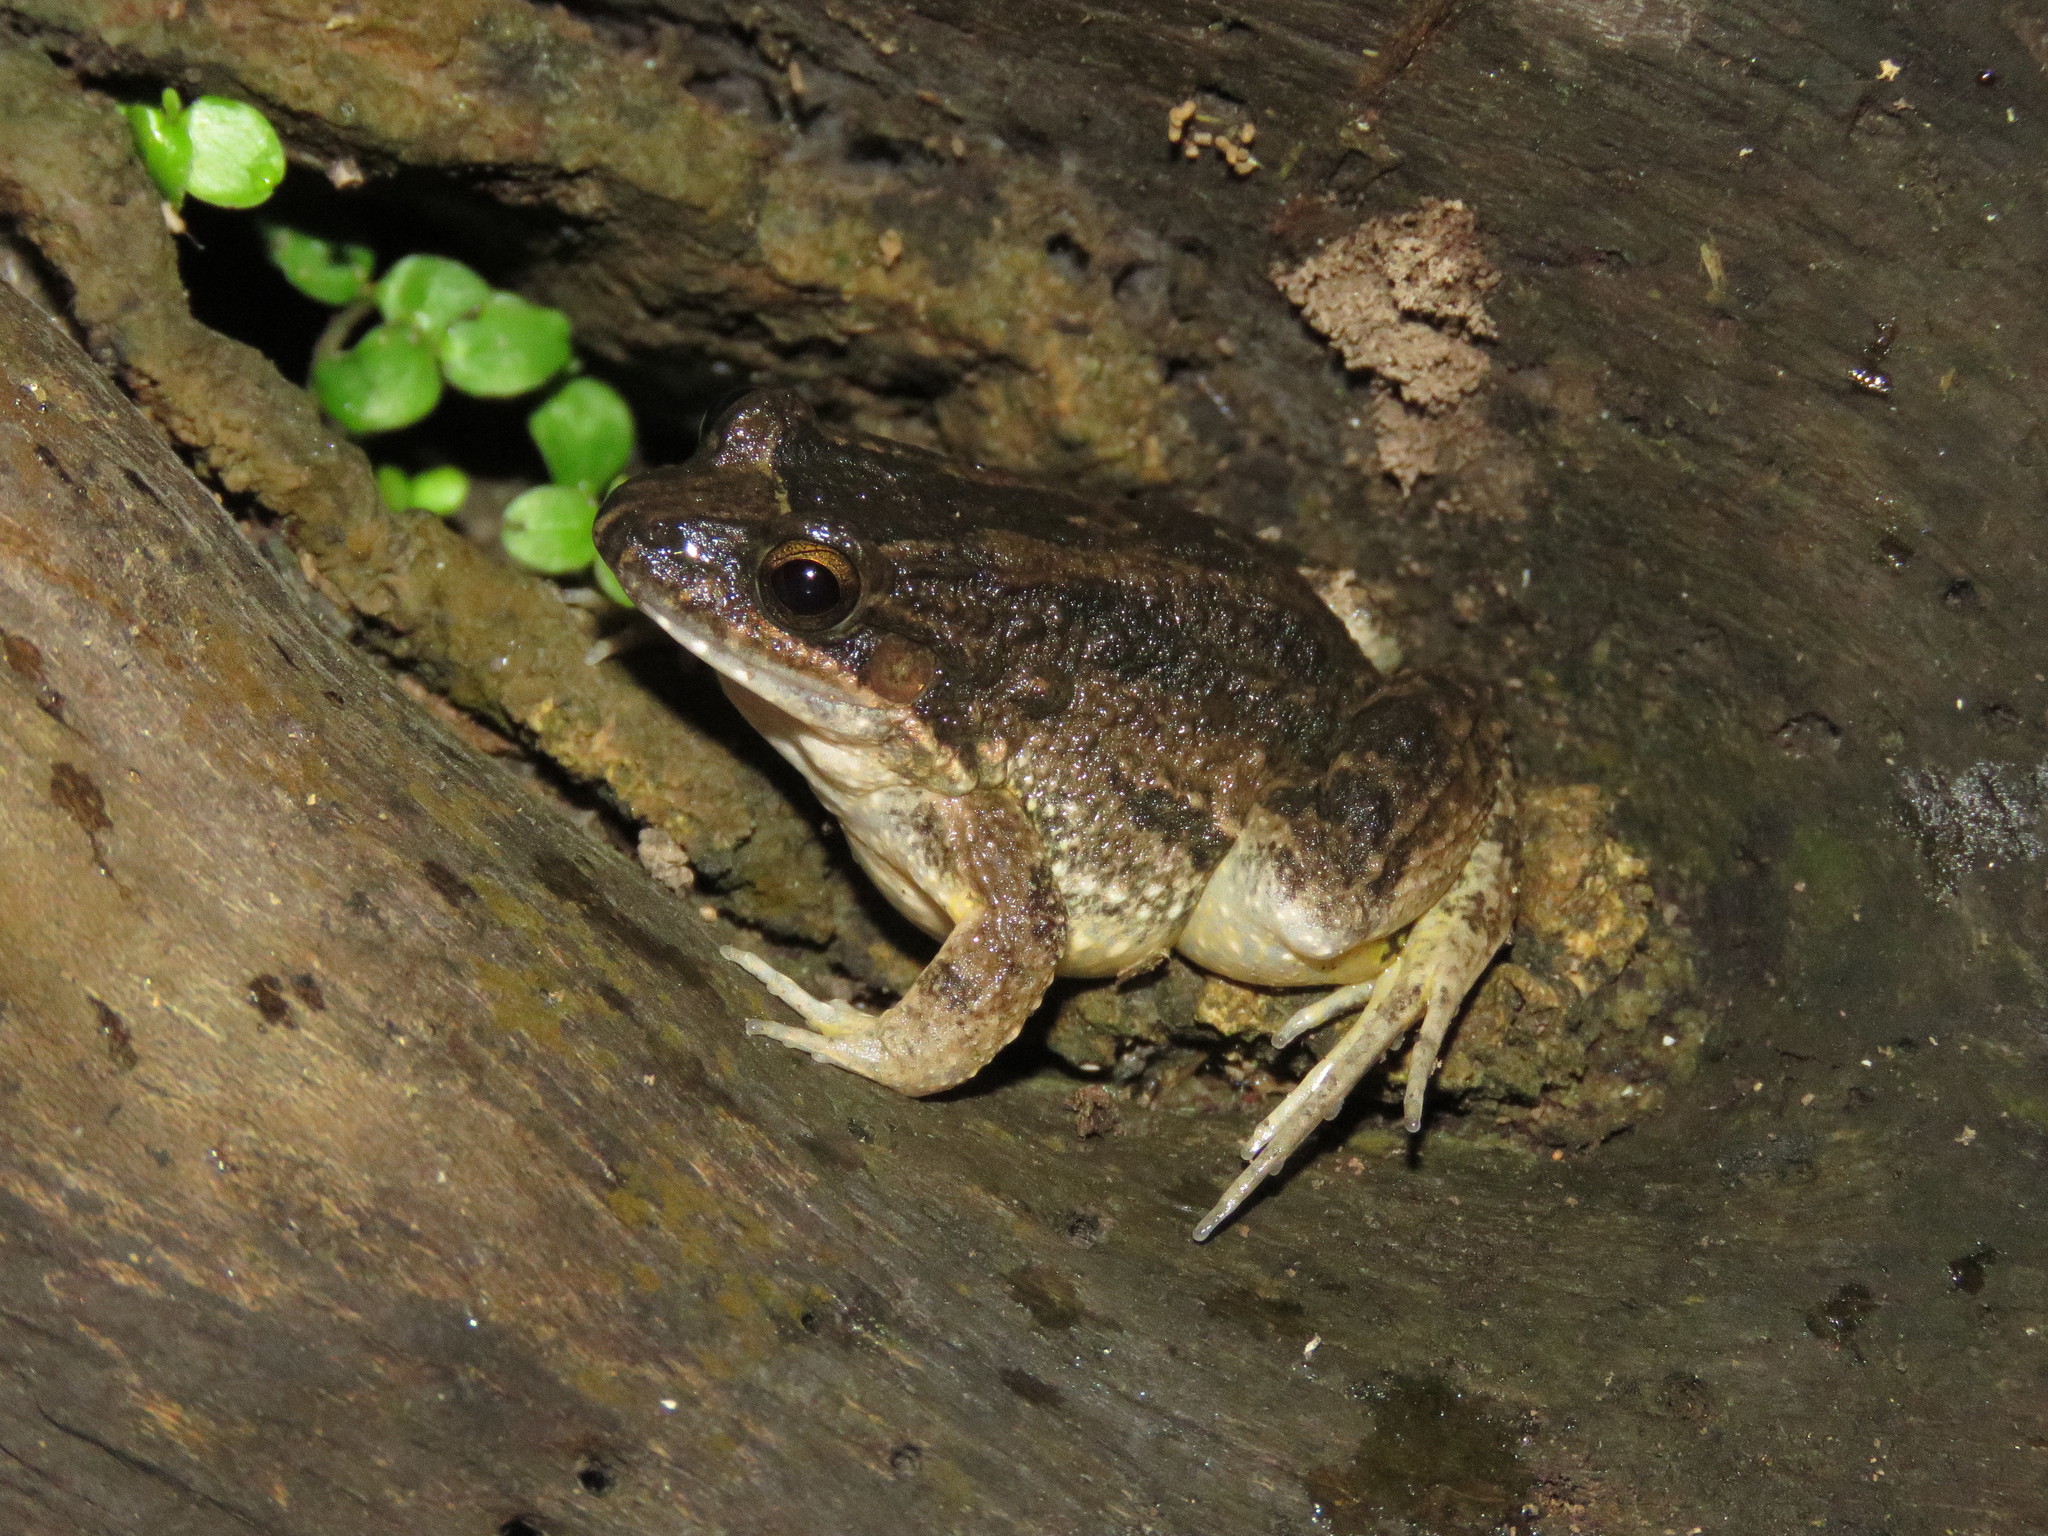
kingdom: Animalia
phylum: Chordata
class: Amphibia
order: Anura
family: Leptodactylidae
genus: Leptodactylus
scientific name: Leptodactylus petersii
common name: Peters' thin-toed frog
